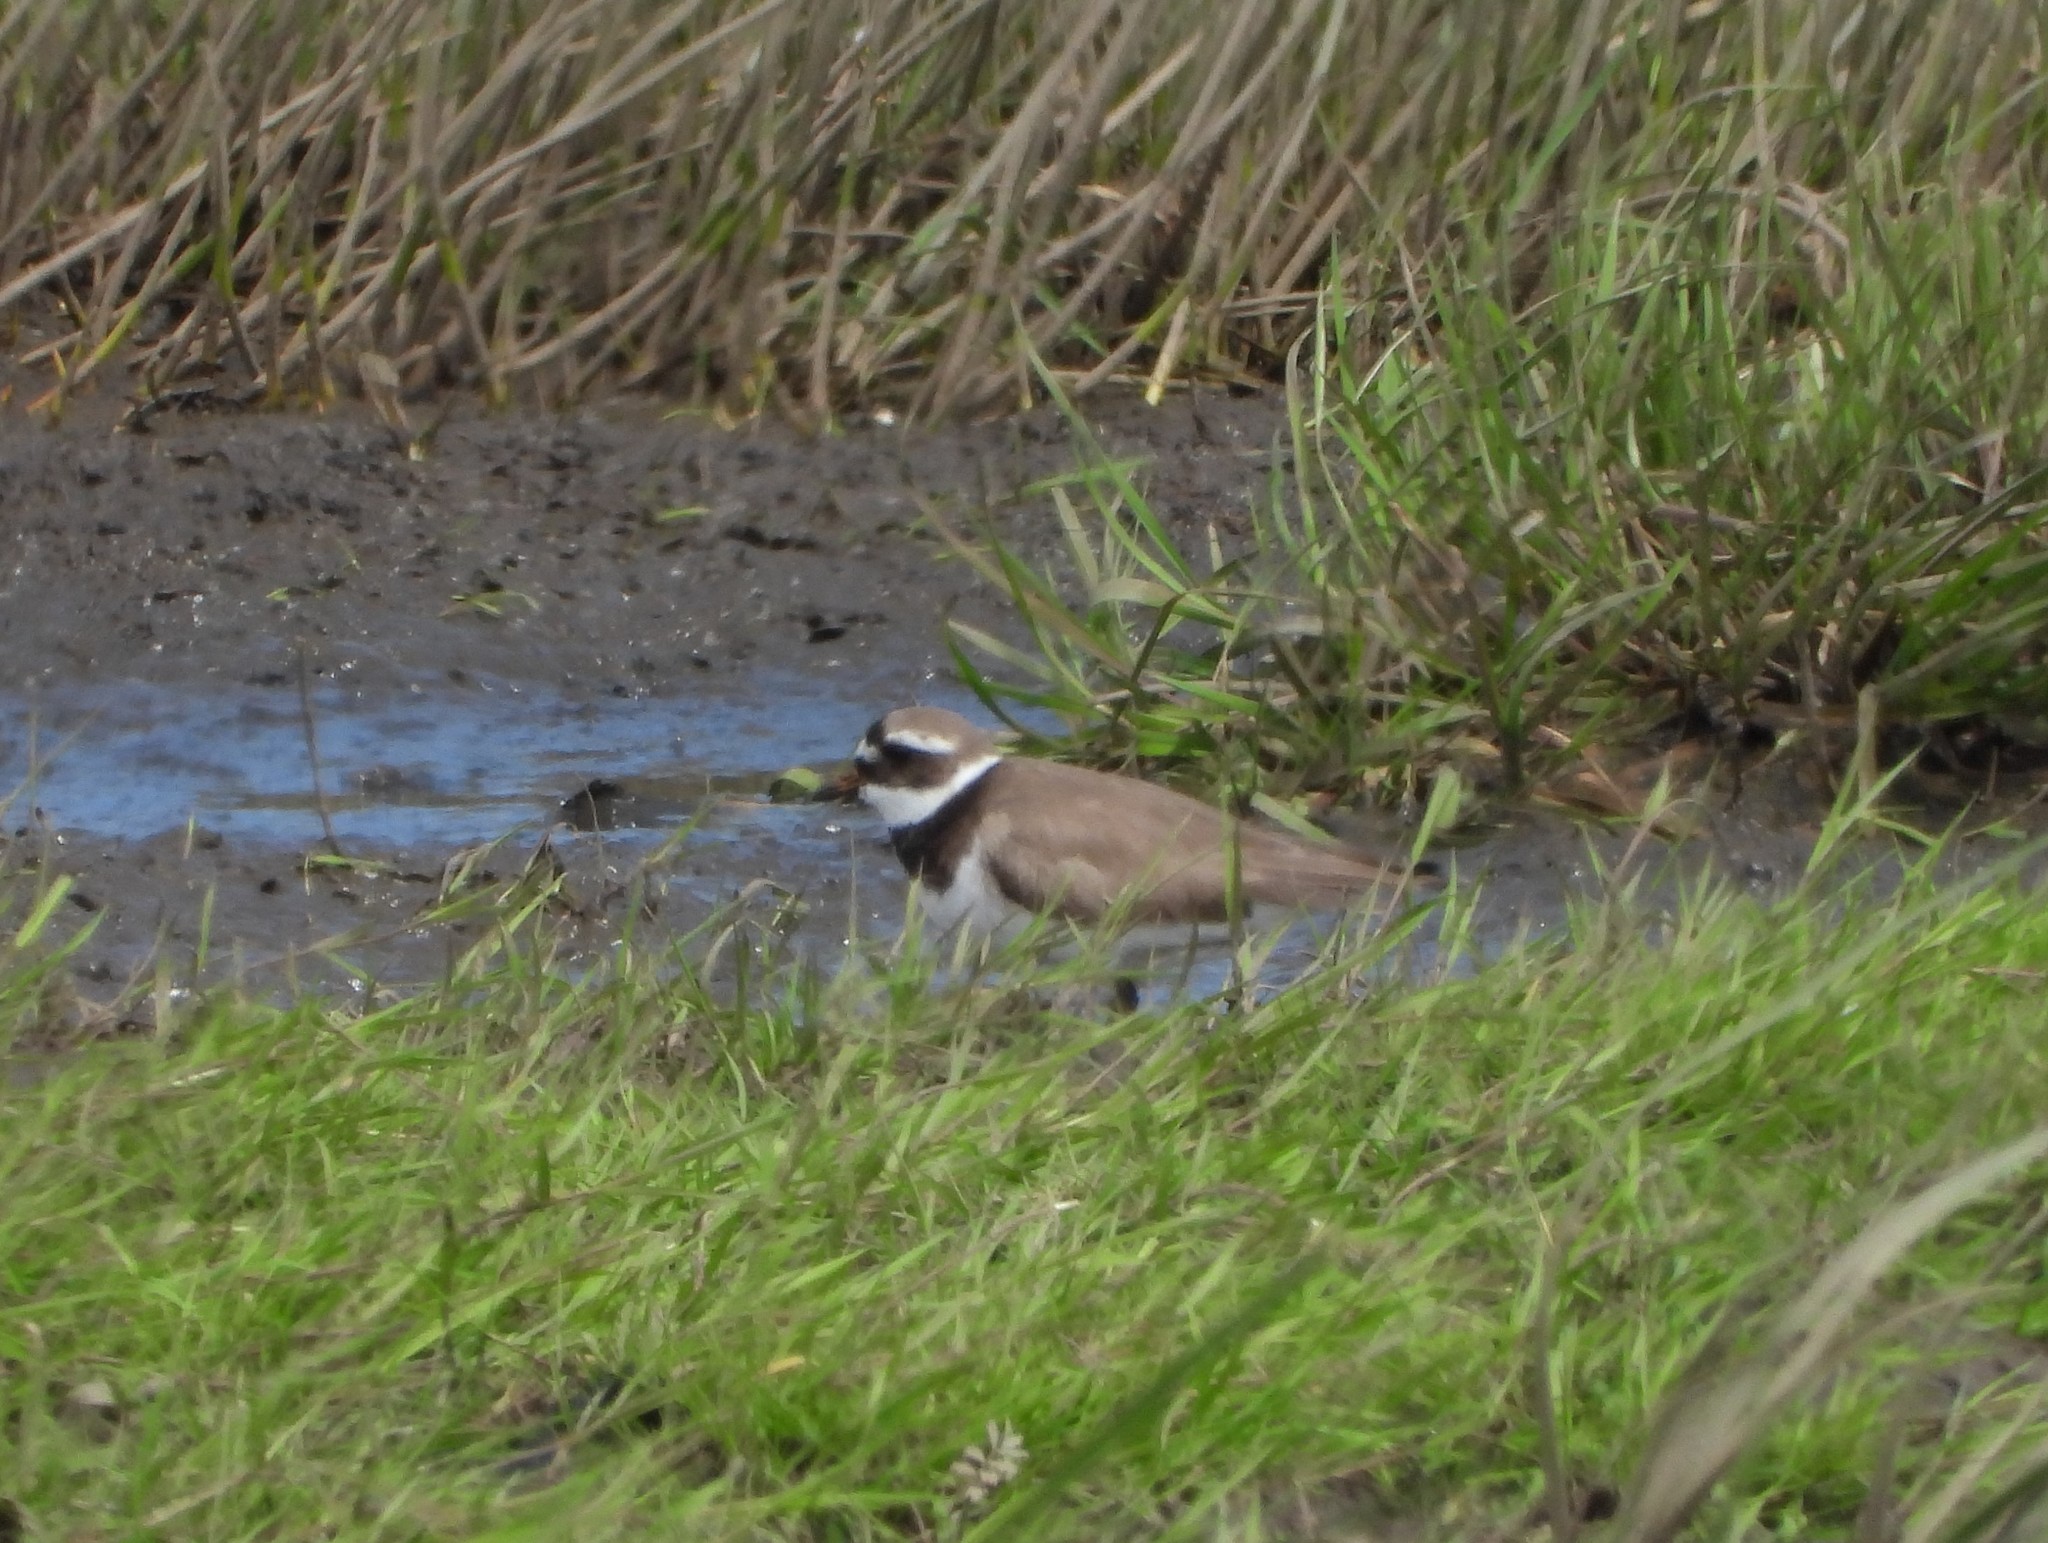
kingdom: Animalia
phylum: Chordata
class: Aves
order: Charadriiformes
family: Charadriidae
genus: Charadrius
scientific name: Charadrius hiaticula
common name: Common ringed plover
